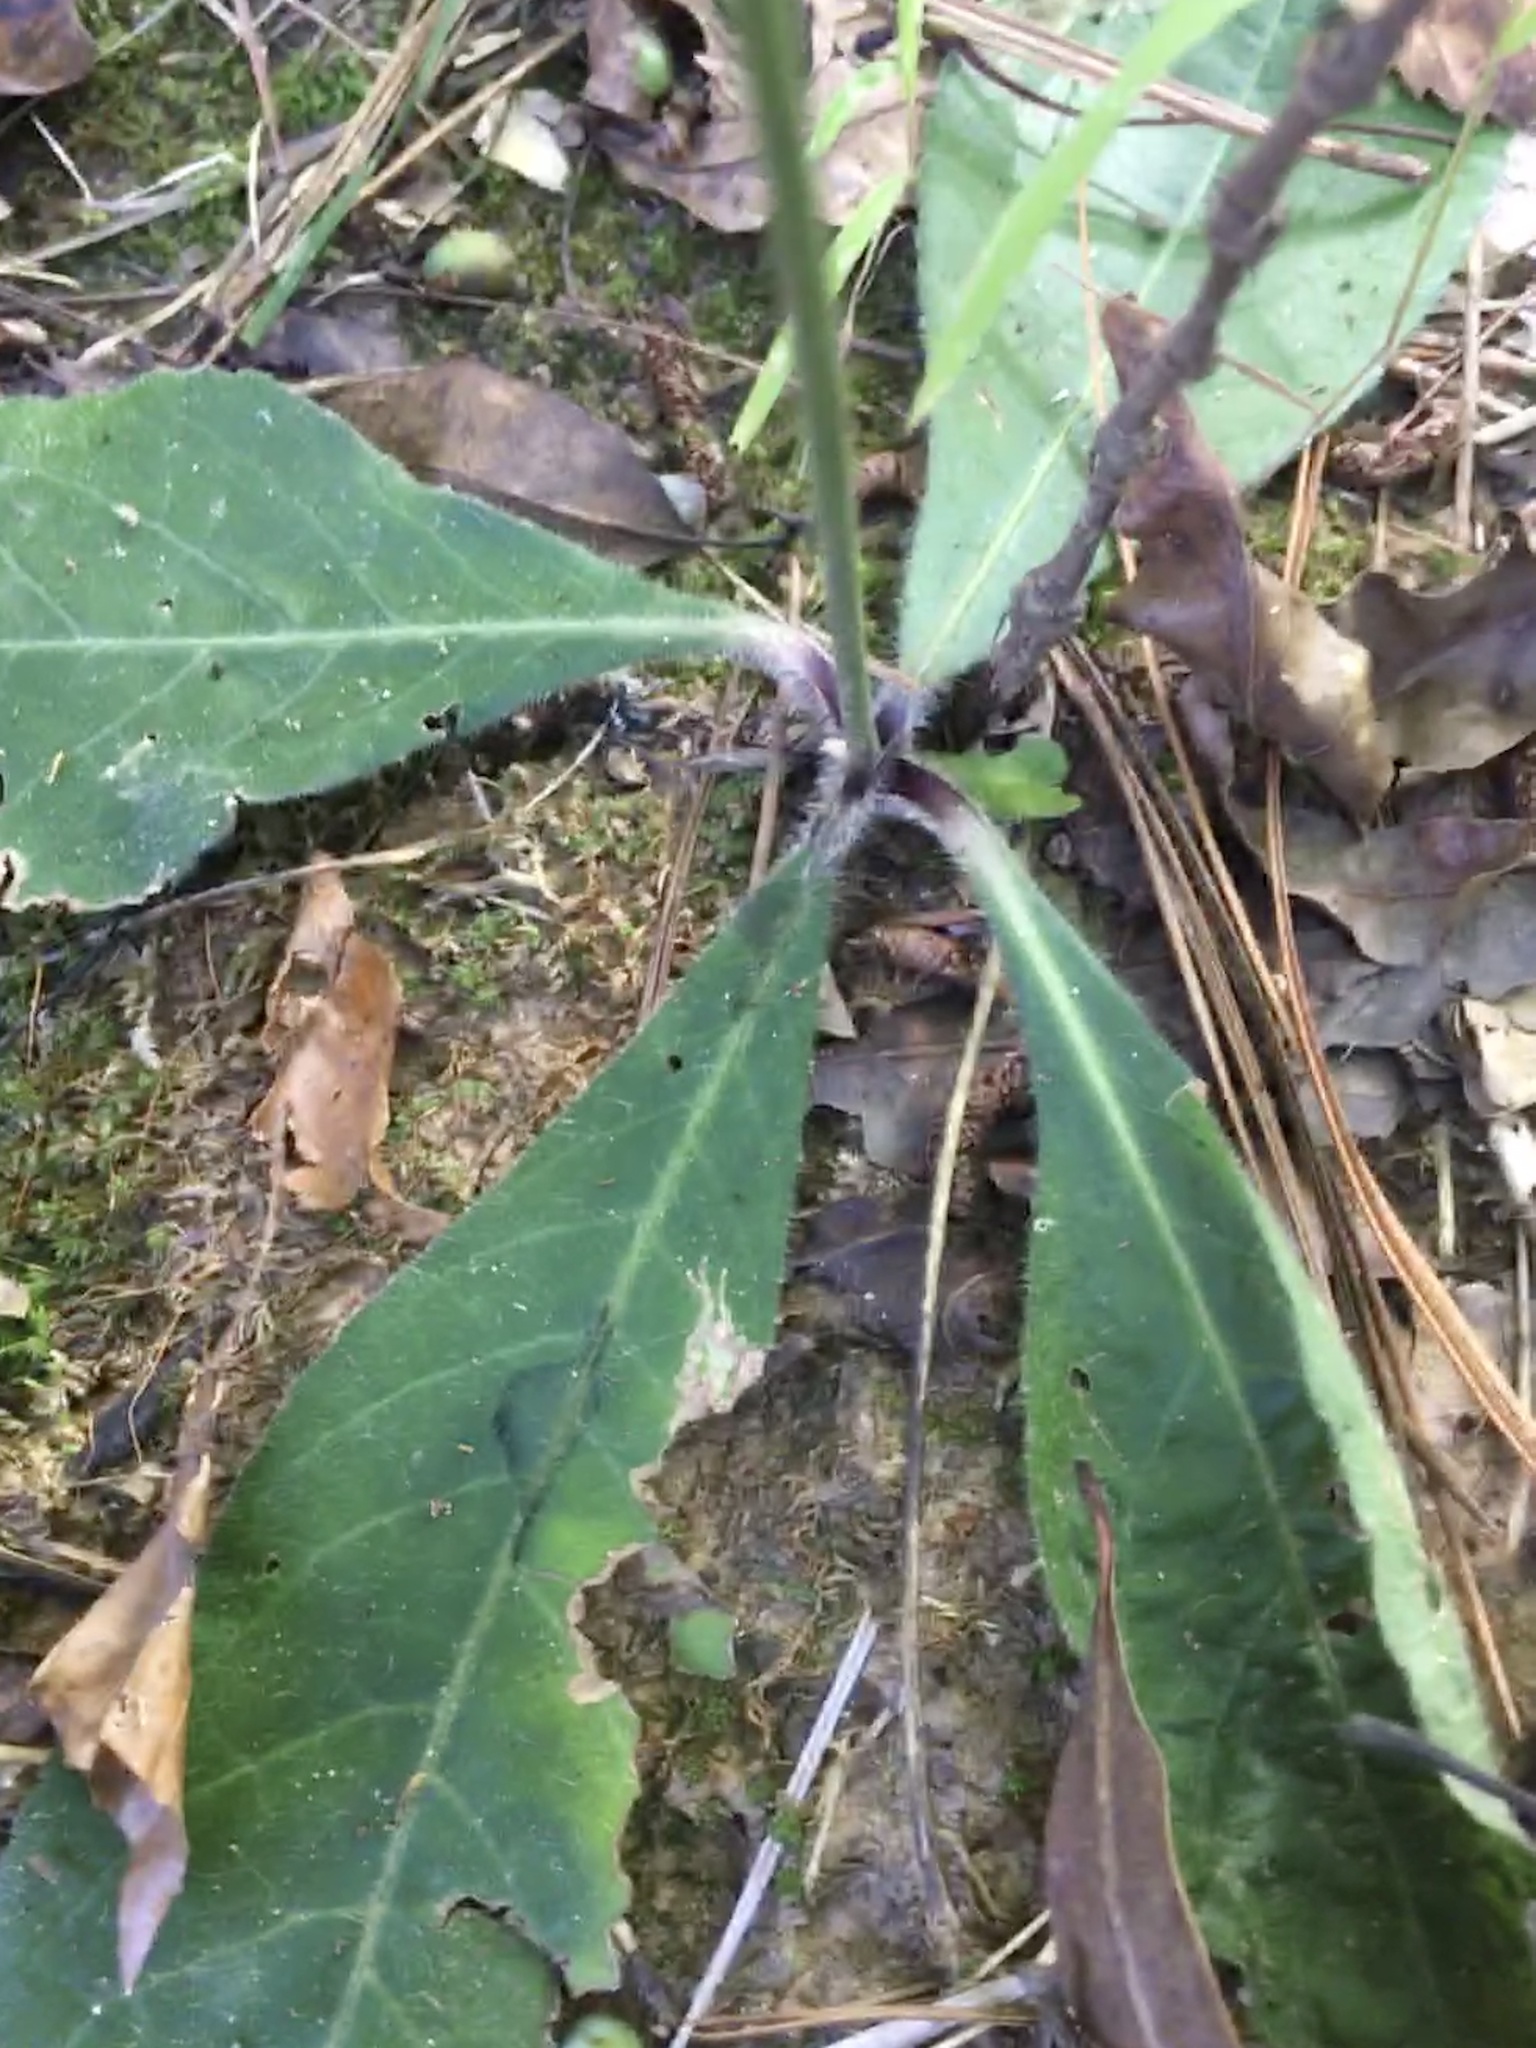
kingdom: Plantae
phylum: Tracheophyta
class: Magnoliopsida
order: Asterales
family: Asteraceae
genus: Elephantopus
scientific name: Elephantopus tomentosus
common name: Tobacco-weed
